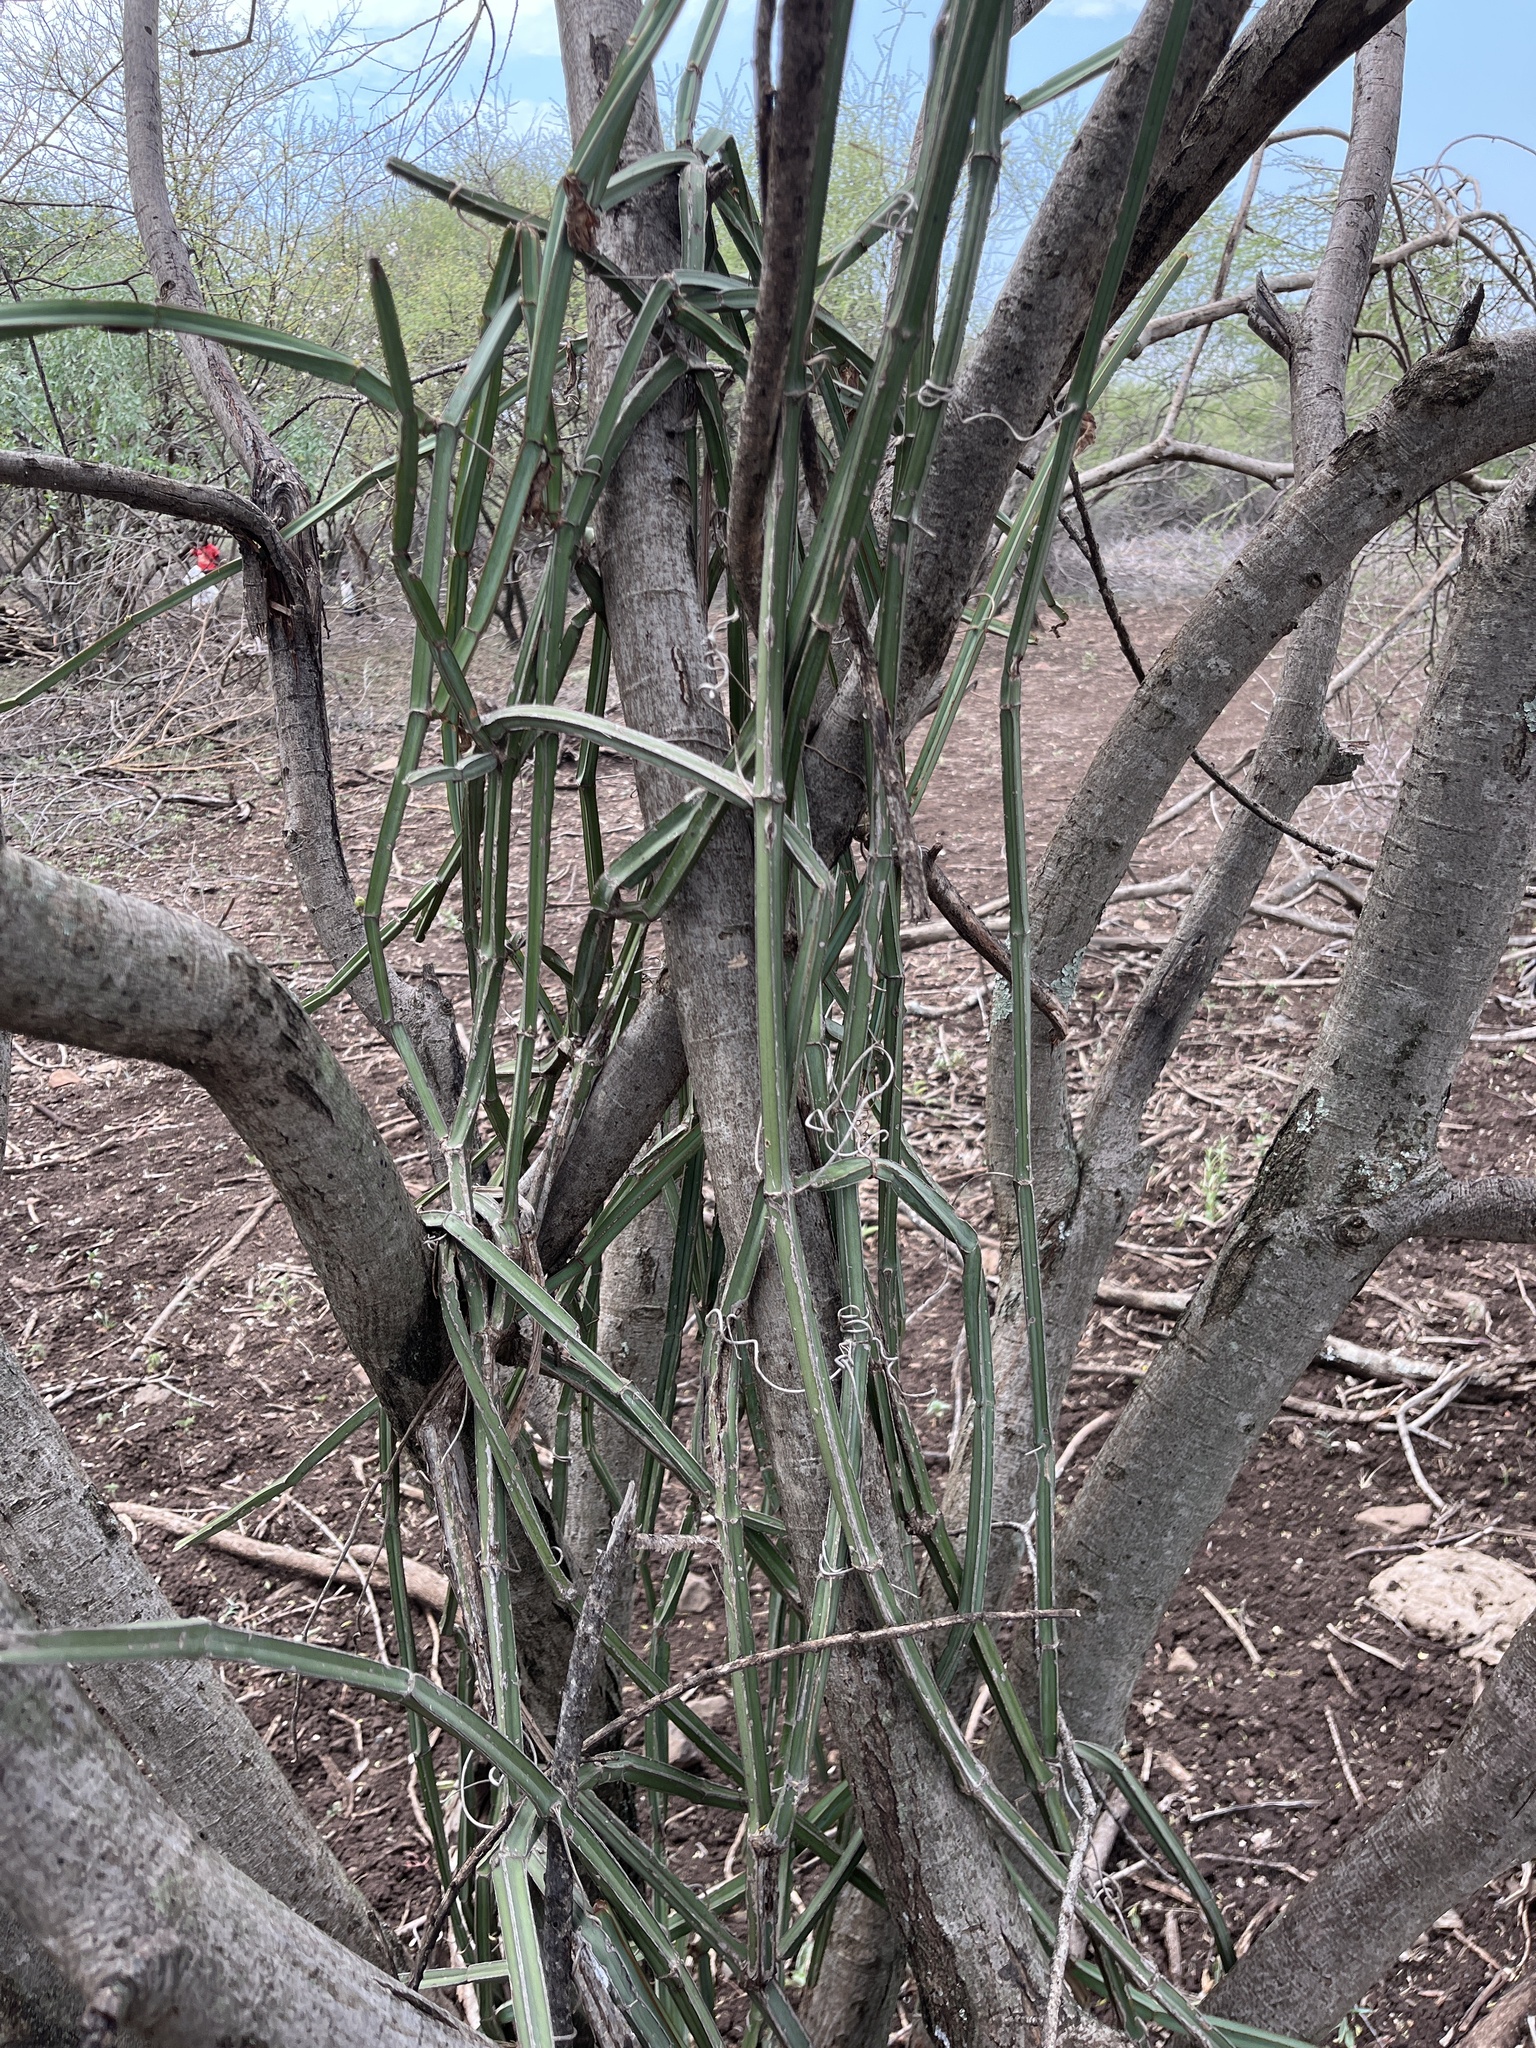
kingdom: Plantae
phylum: Tracheophyta
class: Magnoliopsida
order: Vitales
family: Vitaceae
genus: Cissus
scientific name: Cissus quadrangularis
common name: Veldt-grape
